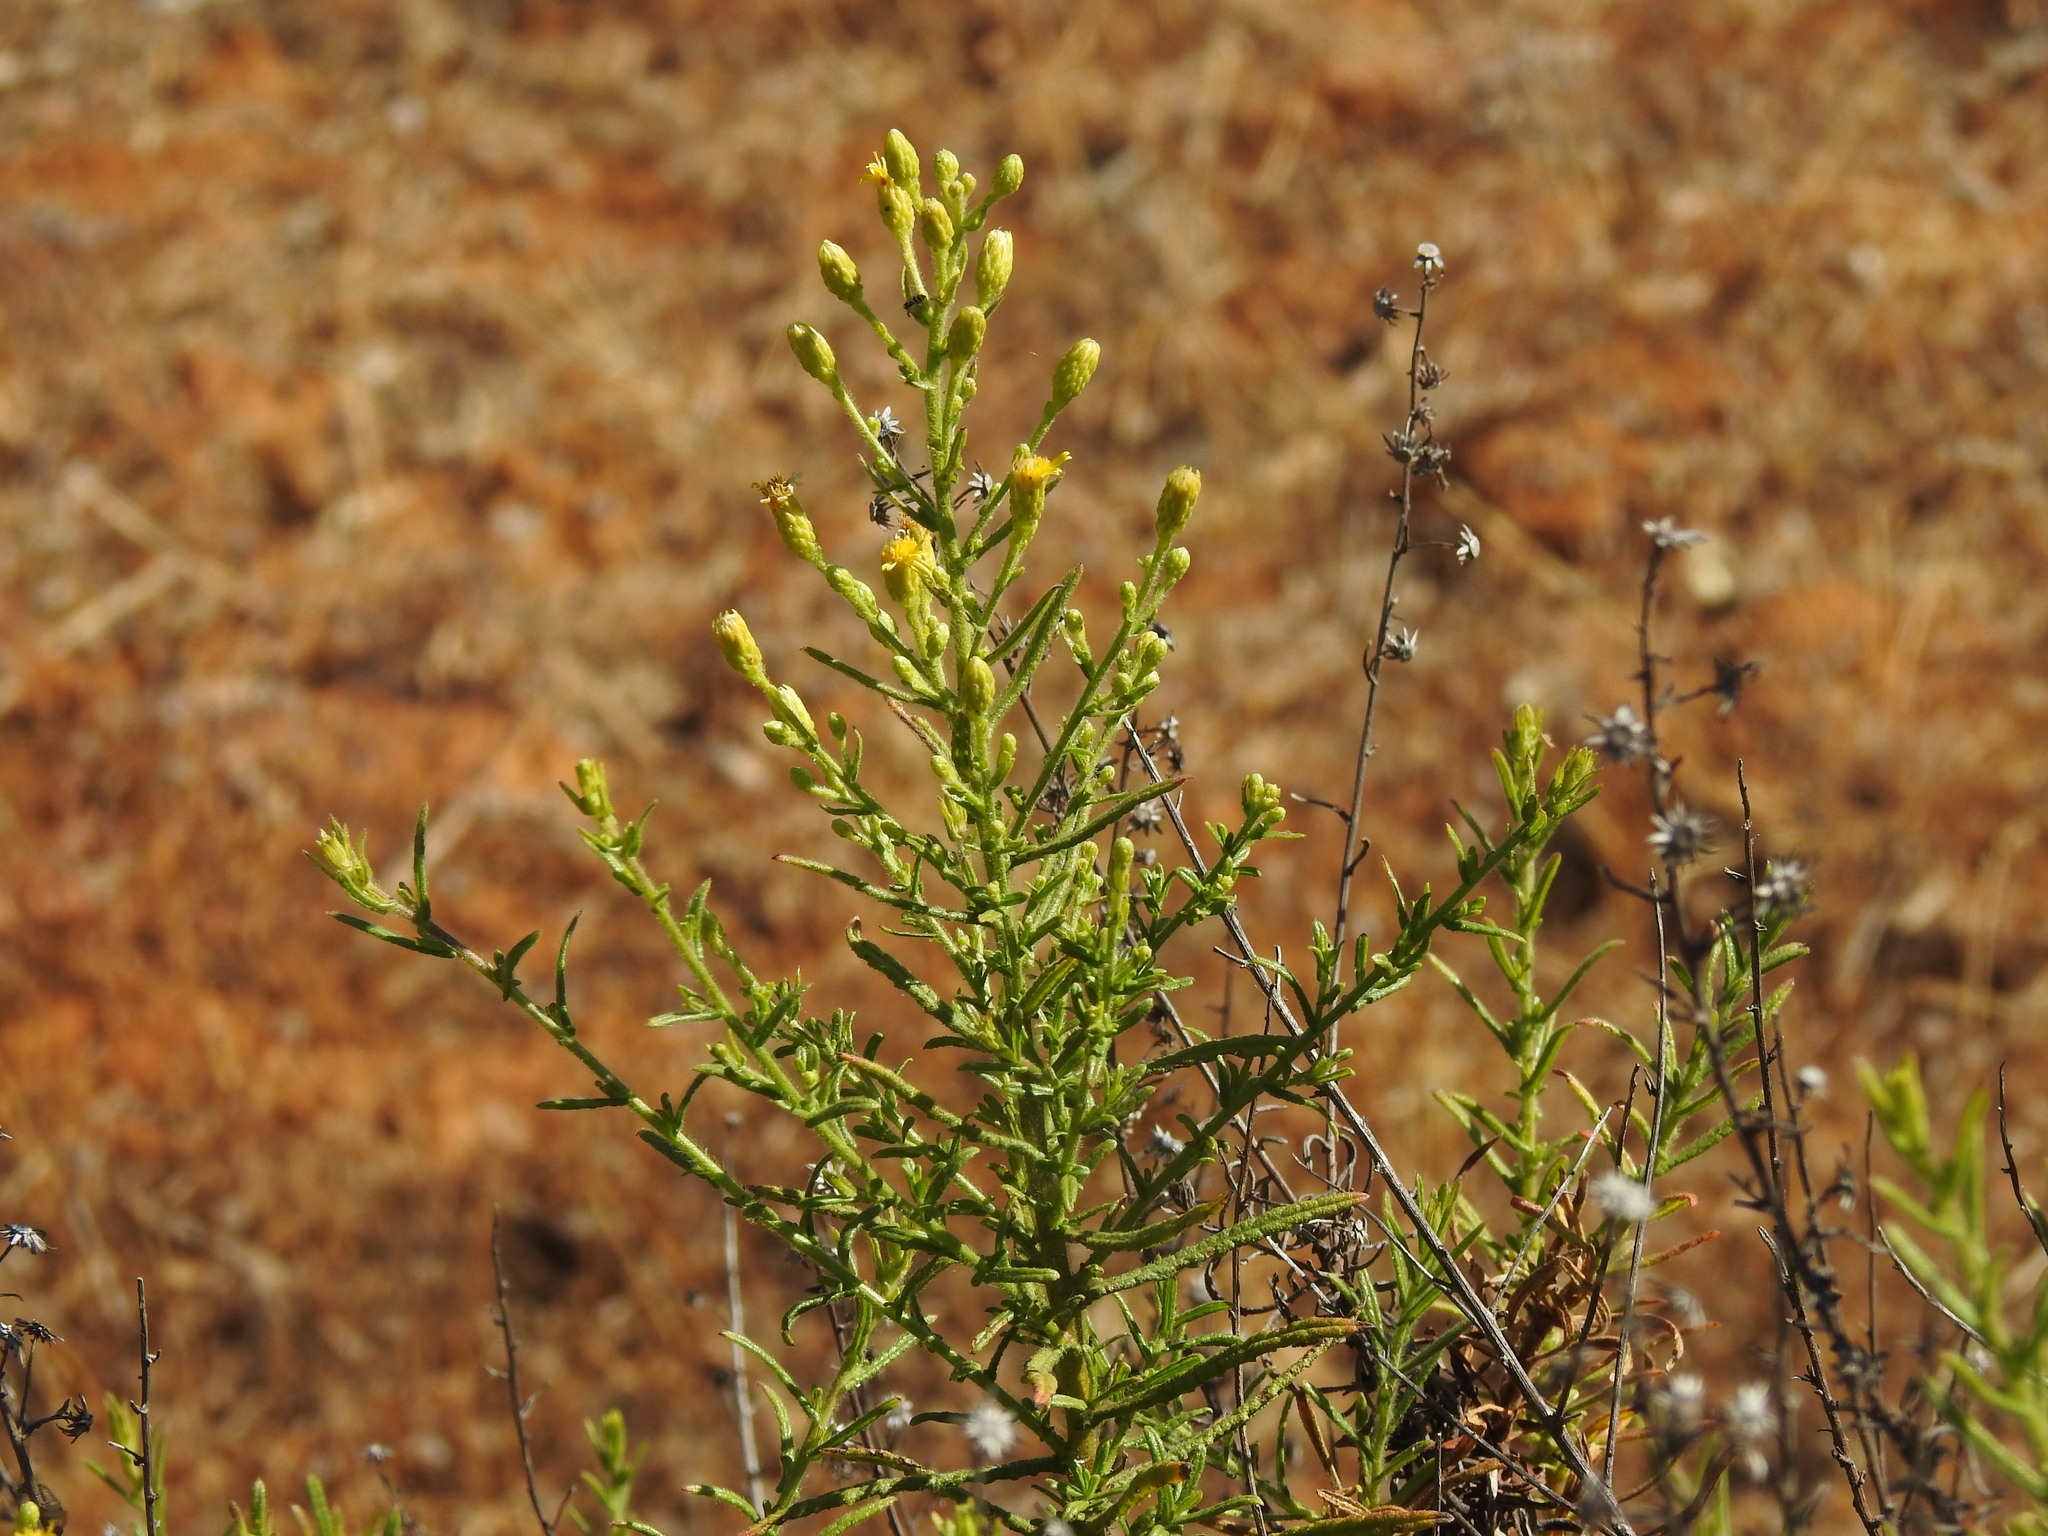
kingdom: Plantae
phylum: Tracheophyta
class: Magnoliopsida
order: Asterales
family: Asteraceae
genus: Dittrichia
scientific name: Dittrichia viscosa
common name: Woody fleabane
